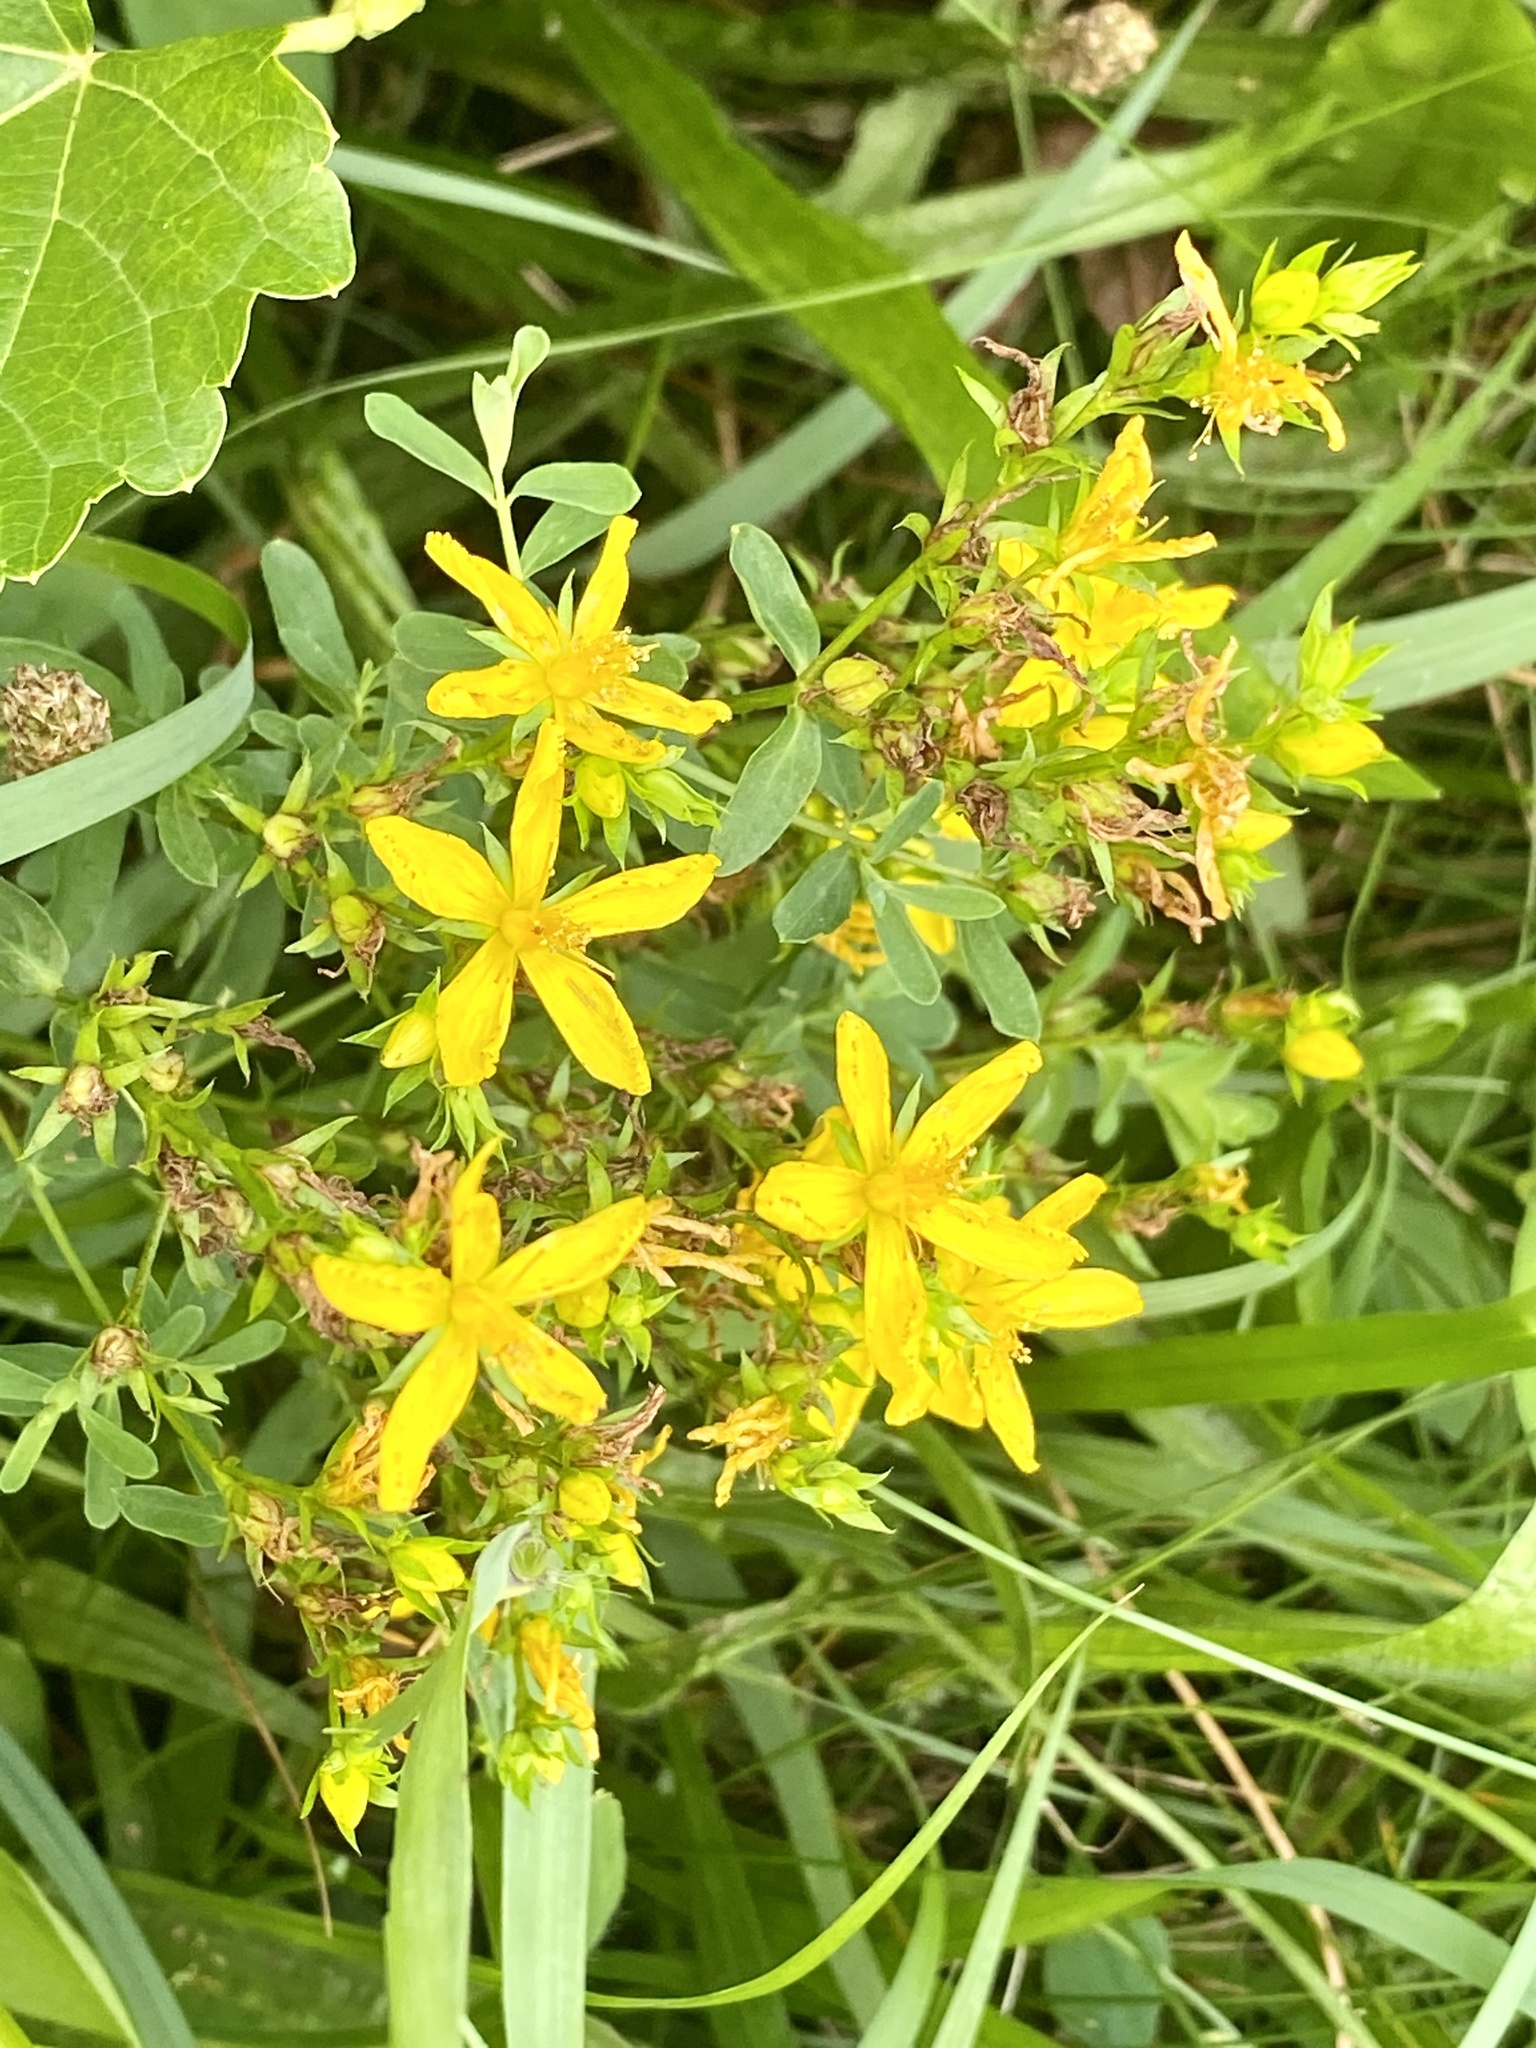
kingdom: Plantae
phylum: Tracheophyta
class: Magnoliopsida
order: Malpighiales
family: Hypericaceae
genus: Hypericum
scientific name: Hypericum perforatum
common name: Common st. johnswort
